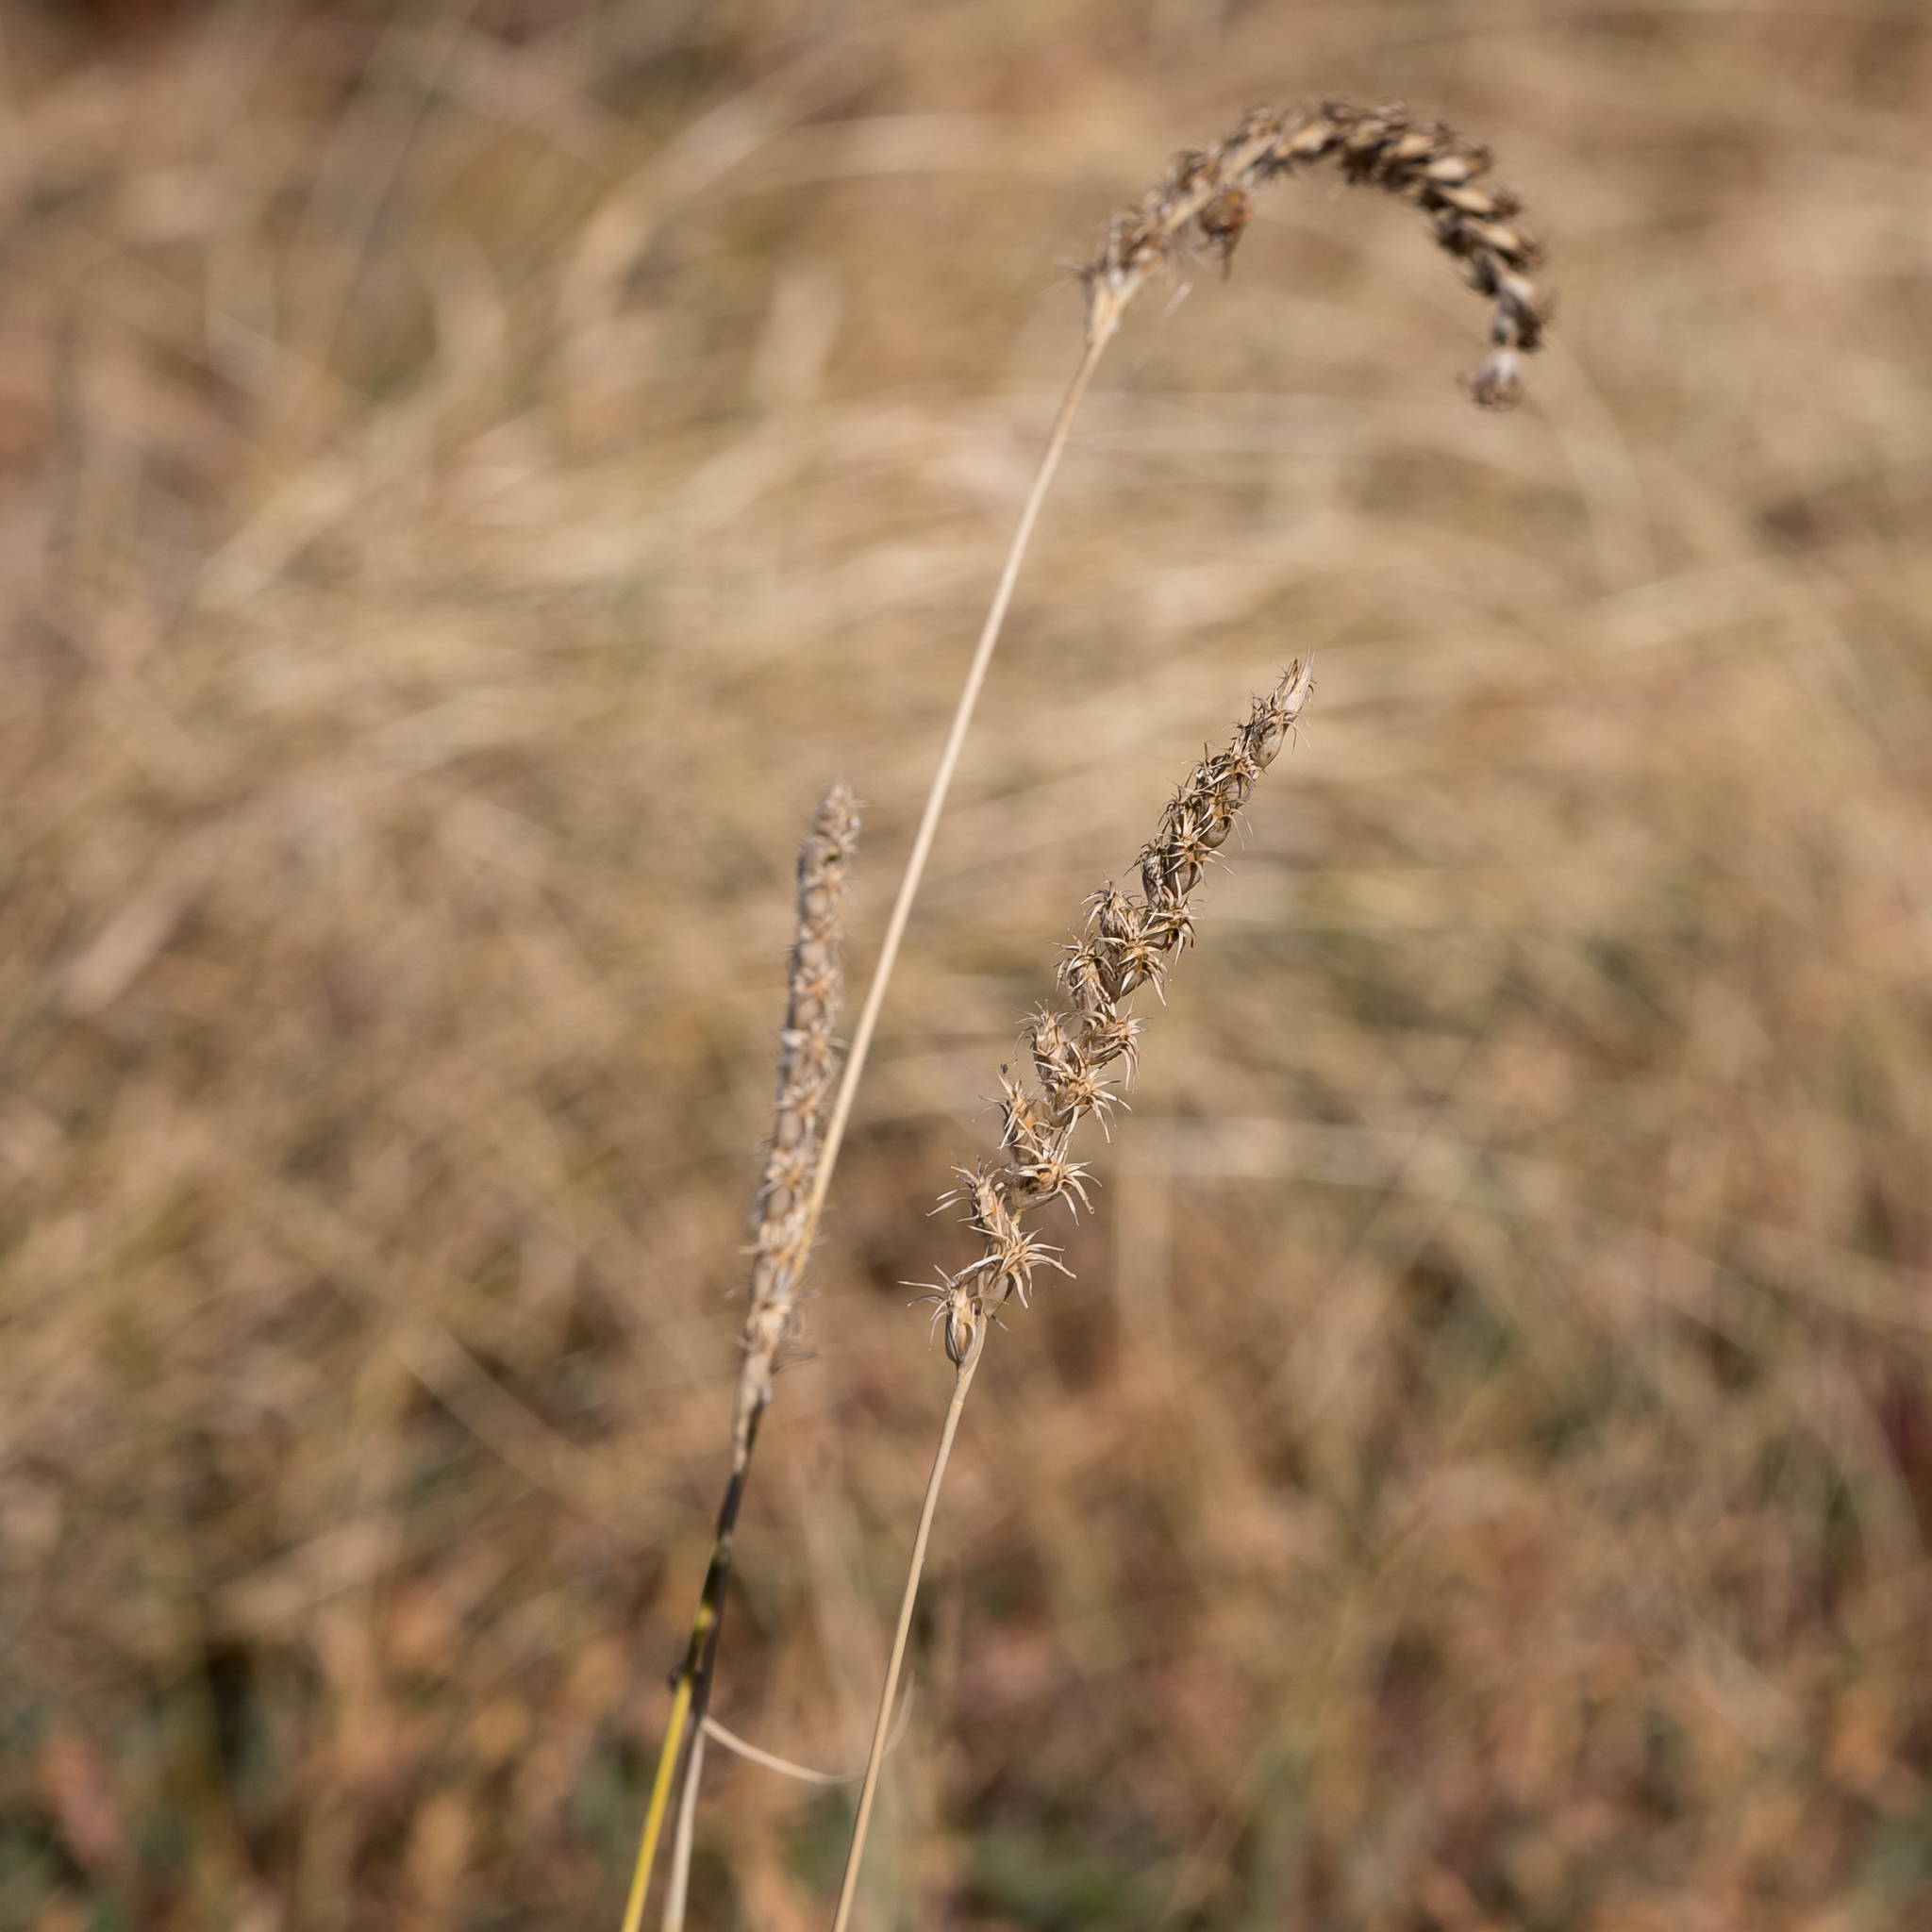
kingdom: Plantae
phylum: Tracheophyta
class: Liliopsida
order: Poales
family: Poaceae
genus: Astrebla
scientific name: Astrebla squarrosa
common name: Wheat-ear mitchell grass
